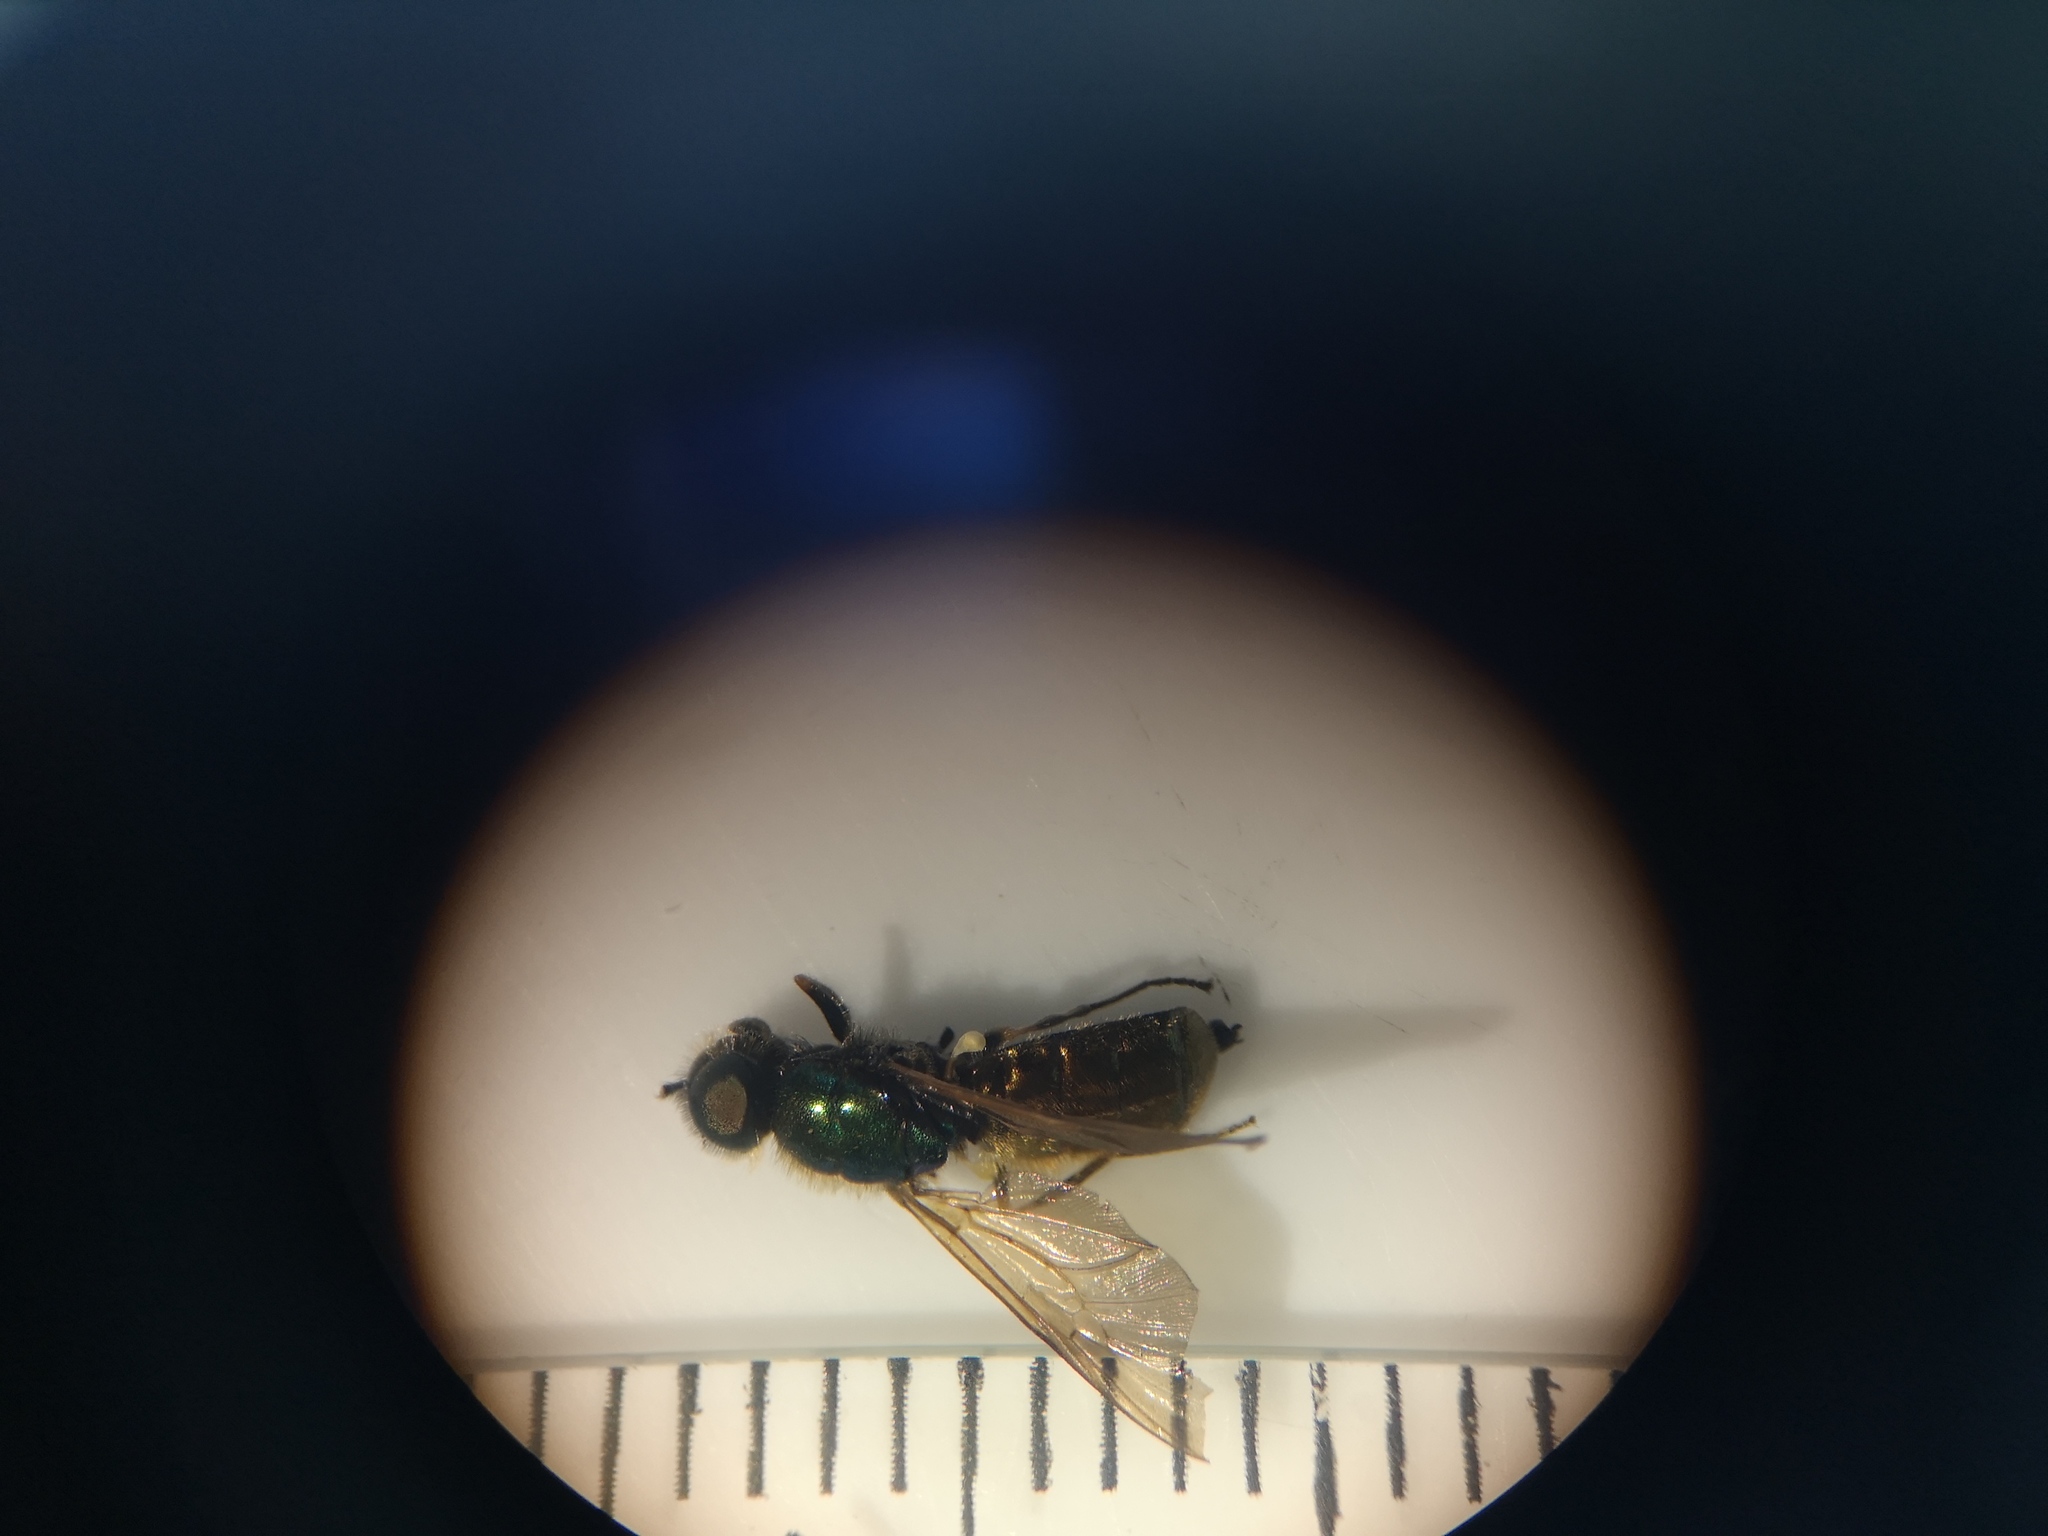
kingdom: Animalia
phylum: Arthropoda
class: Insecta
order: Diptera
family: Stratiomyidae
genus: Chloromyia
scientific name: Chloromyia formosa
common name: Soldier fly
